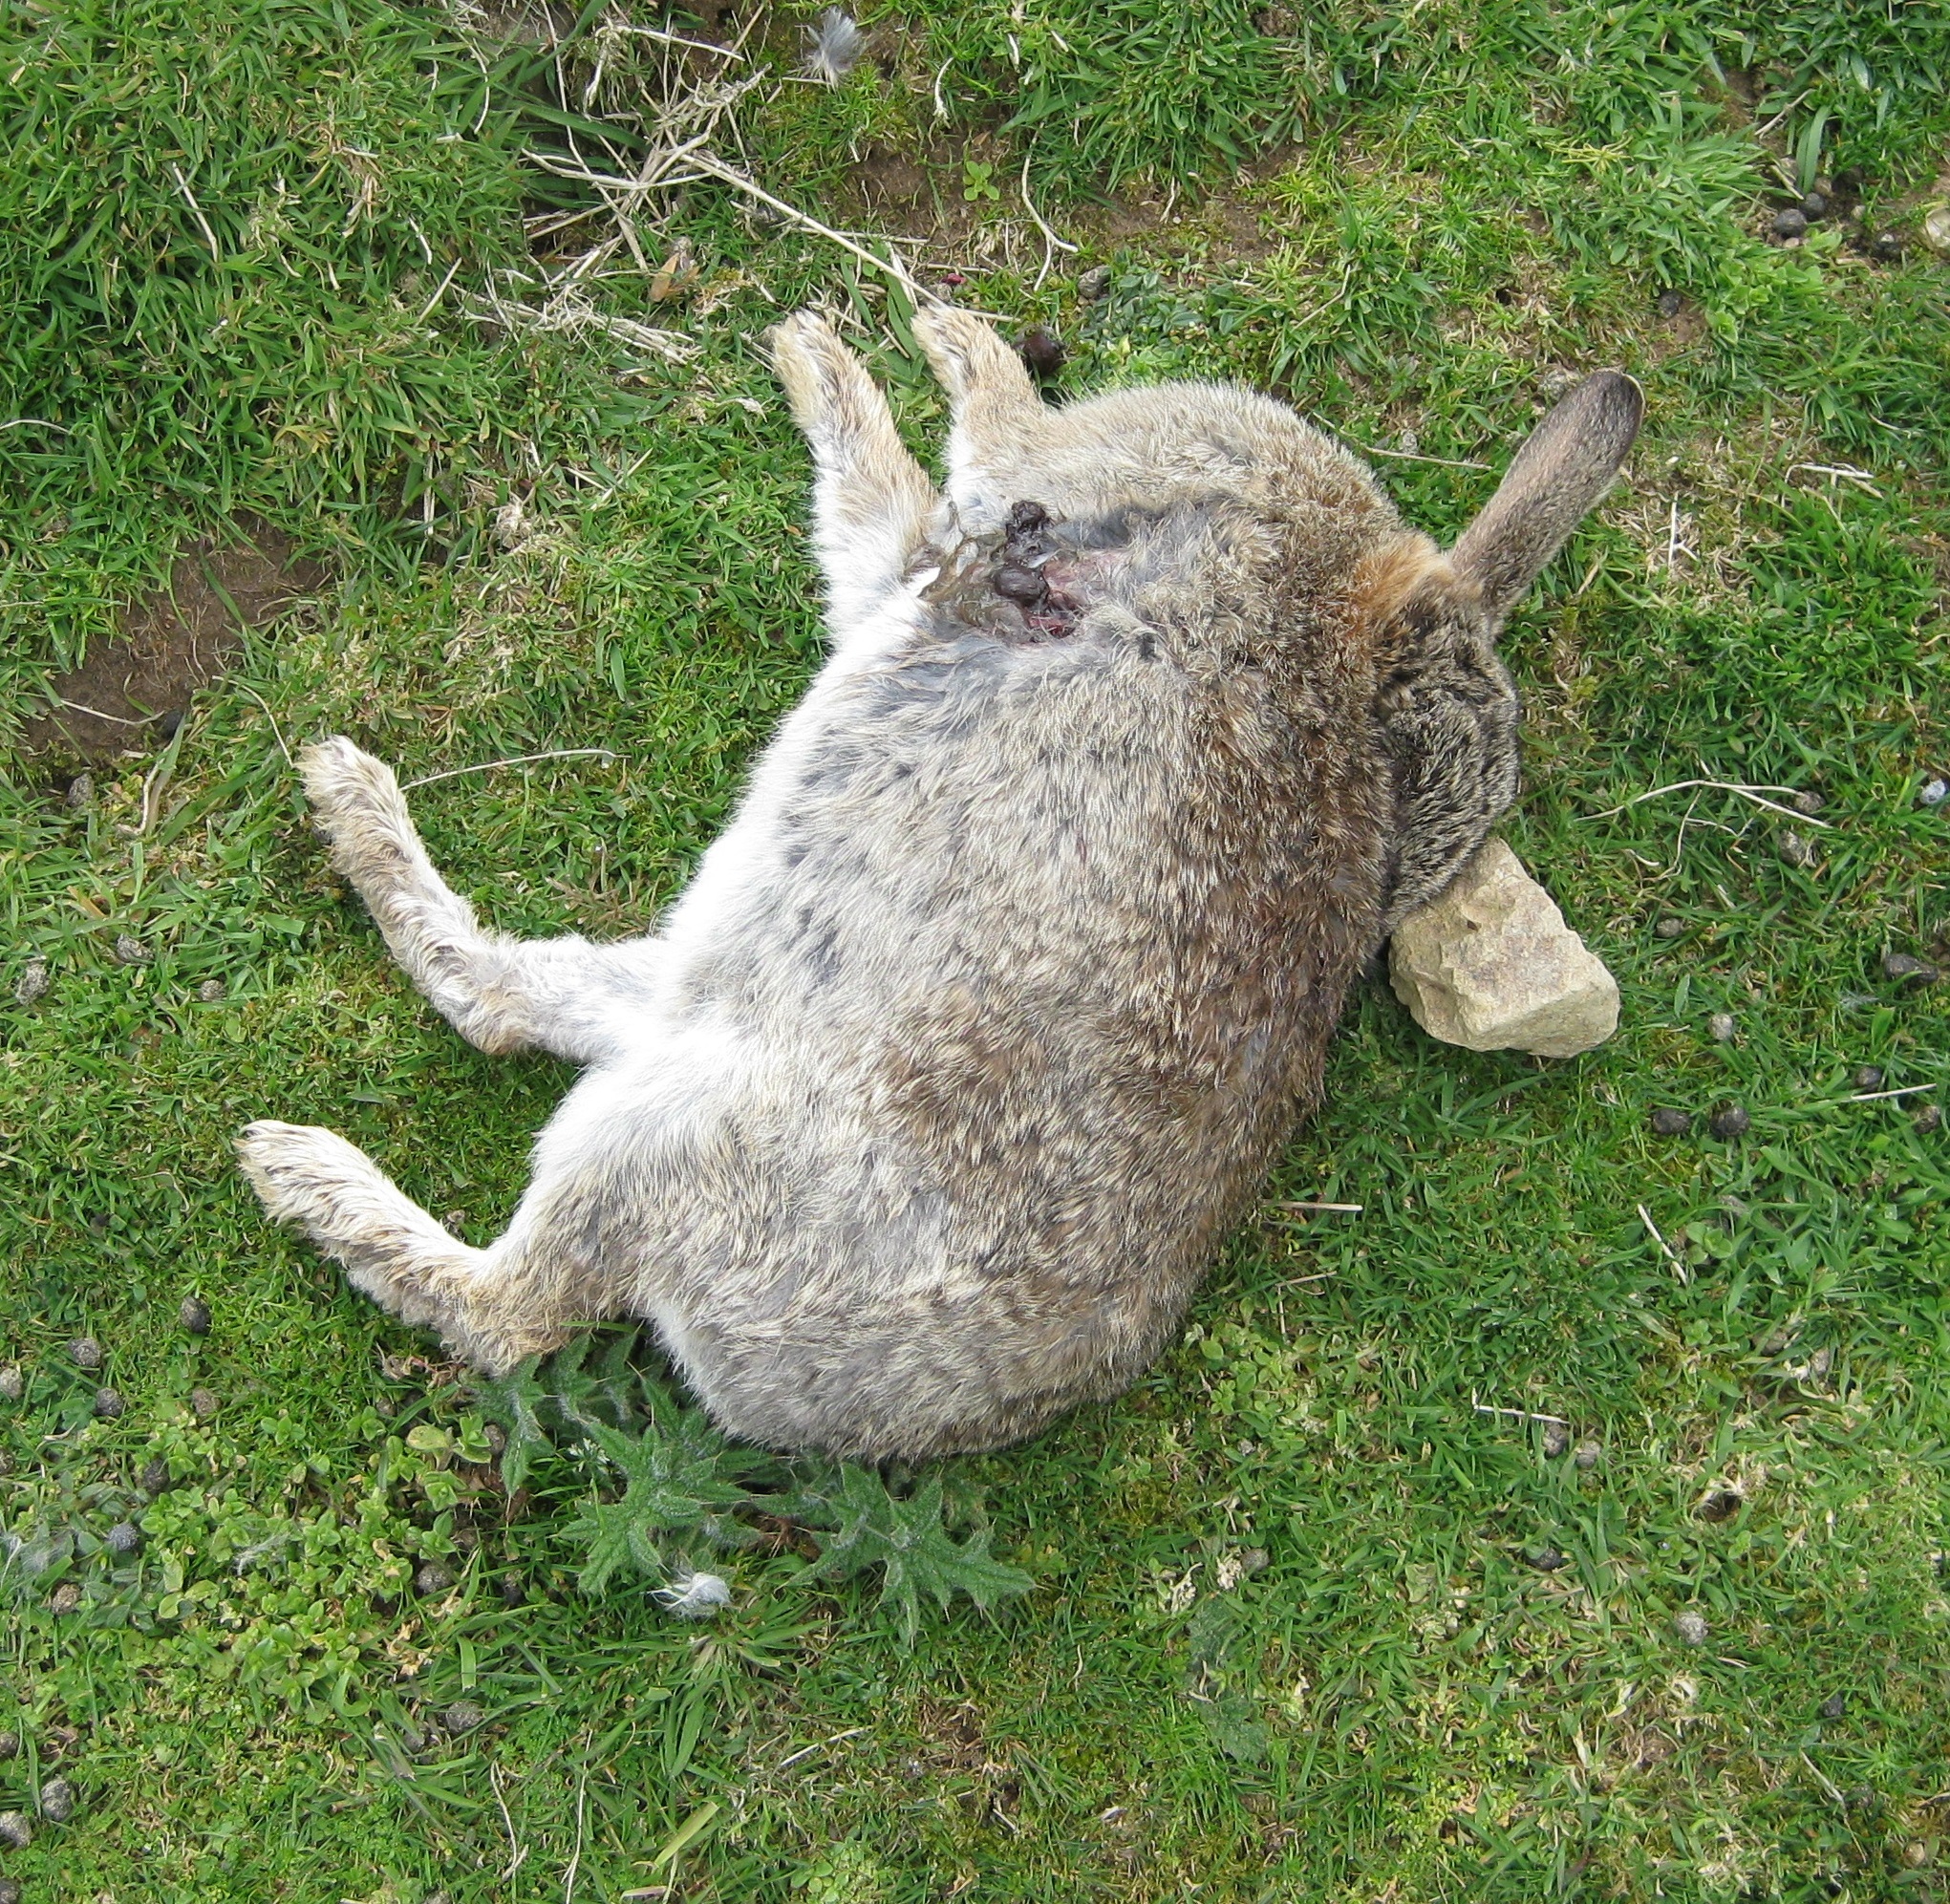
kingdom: Animalia
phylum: Chordata
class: Mammalia
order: Lagomorpha
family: Leporidae
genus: Lepus
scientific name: Lepus europaeus
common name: European hare
